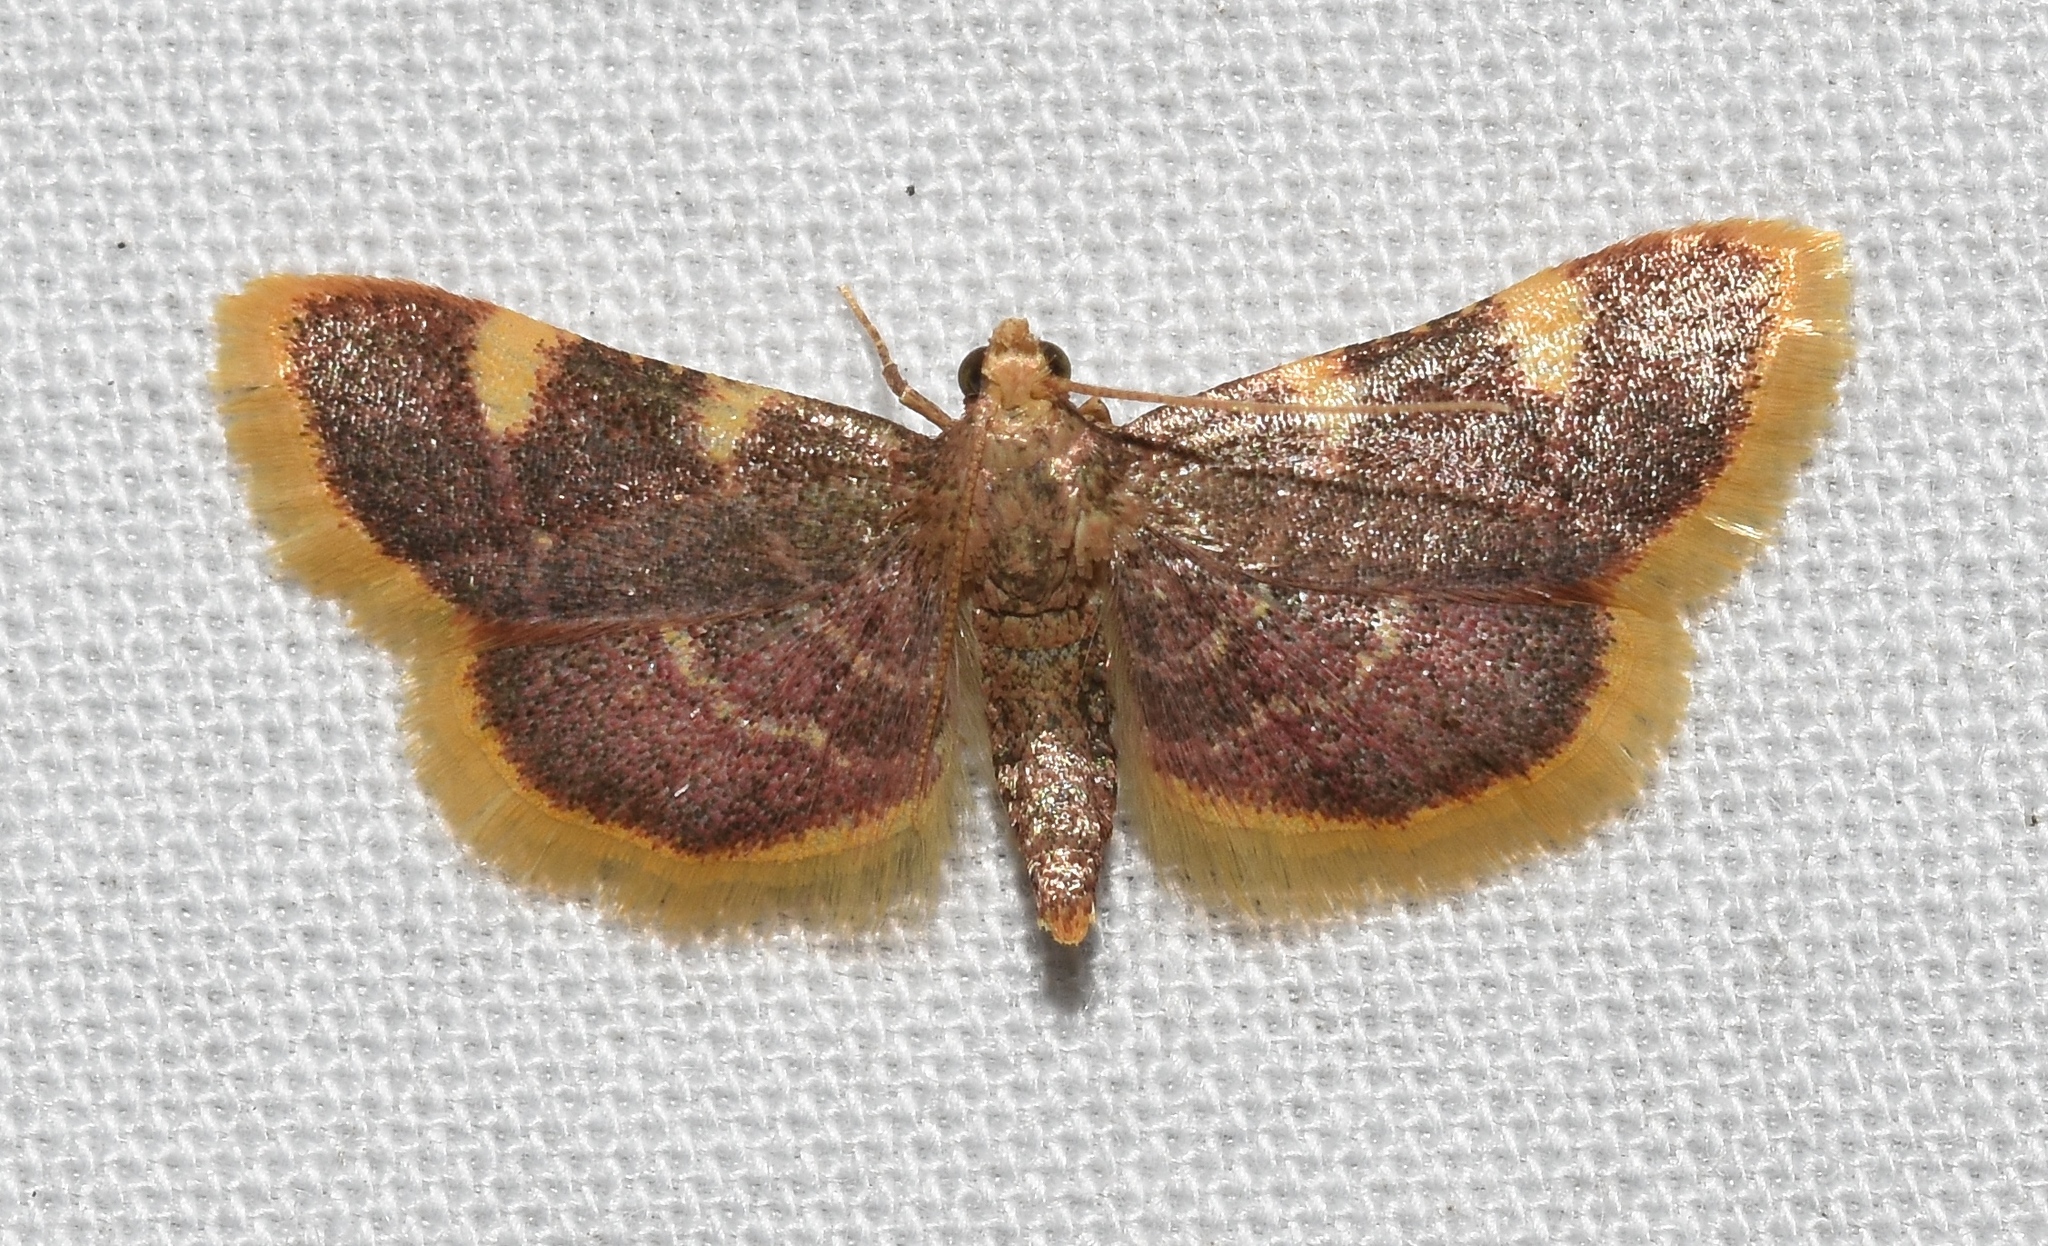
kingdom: Animalia
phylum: Arthropoda
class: Insecta
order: Lepidoptera
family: Pyralidae
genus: Hypsopygia
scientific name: Hypsopygia costalis
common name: Gold triangle
